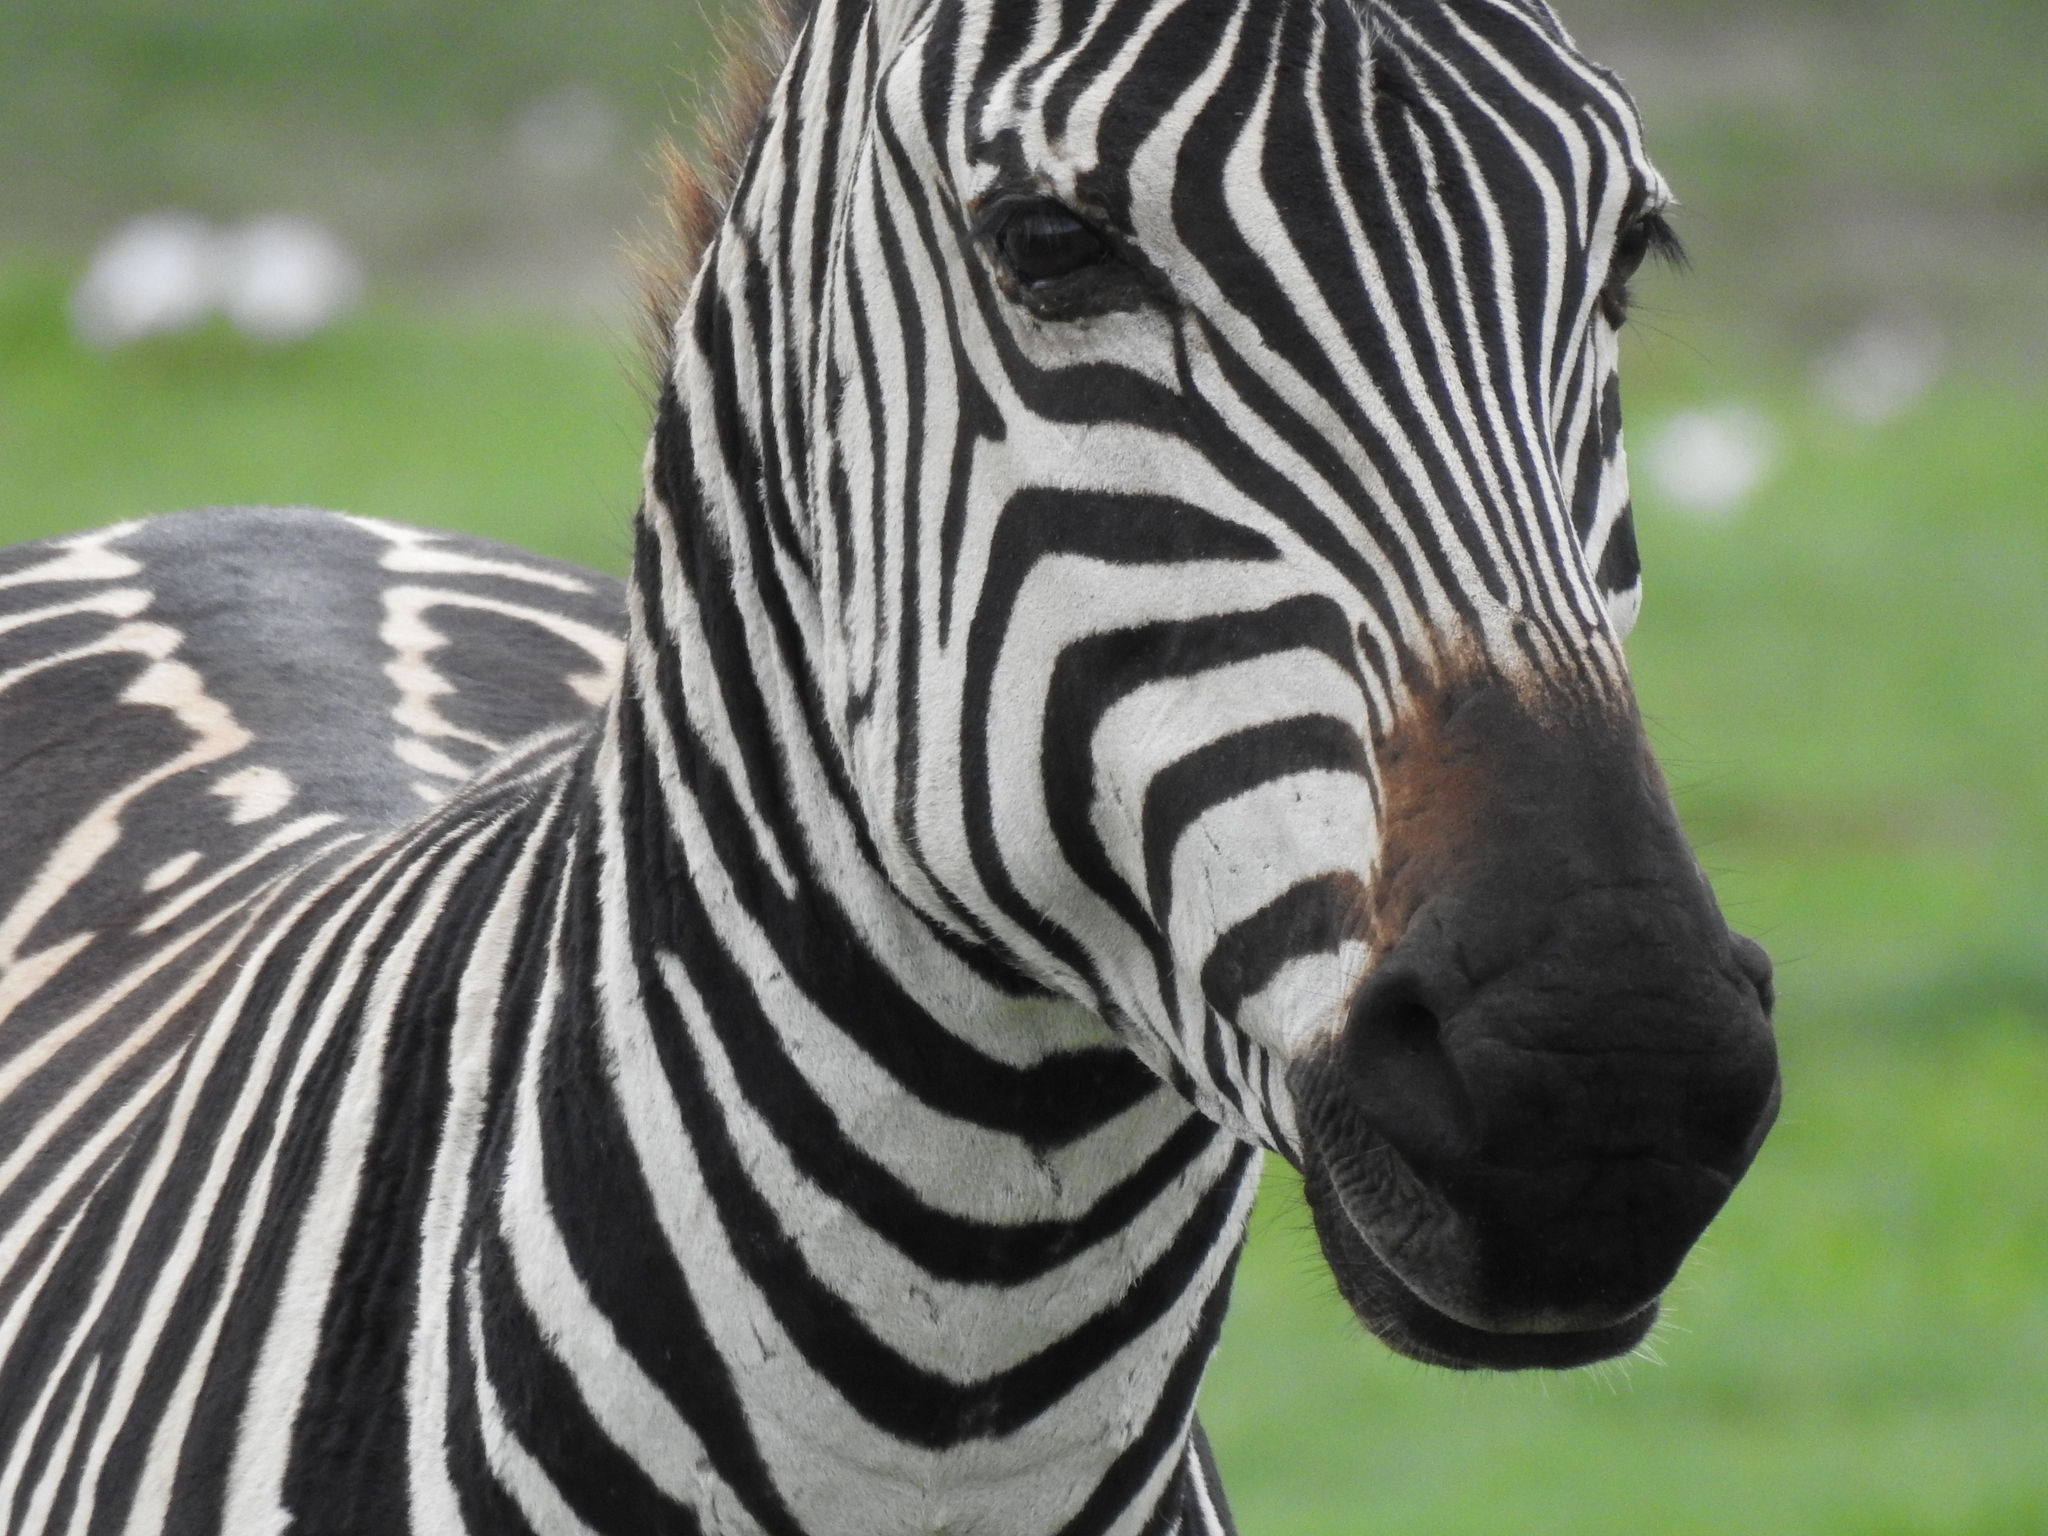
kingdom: Animalia
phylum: Chordata
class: Mammalia
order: Perissodactyla
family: Equidae
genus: Equus
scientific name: Equus quagga
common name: Plains zebra
